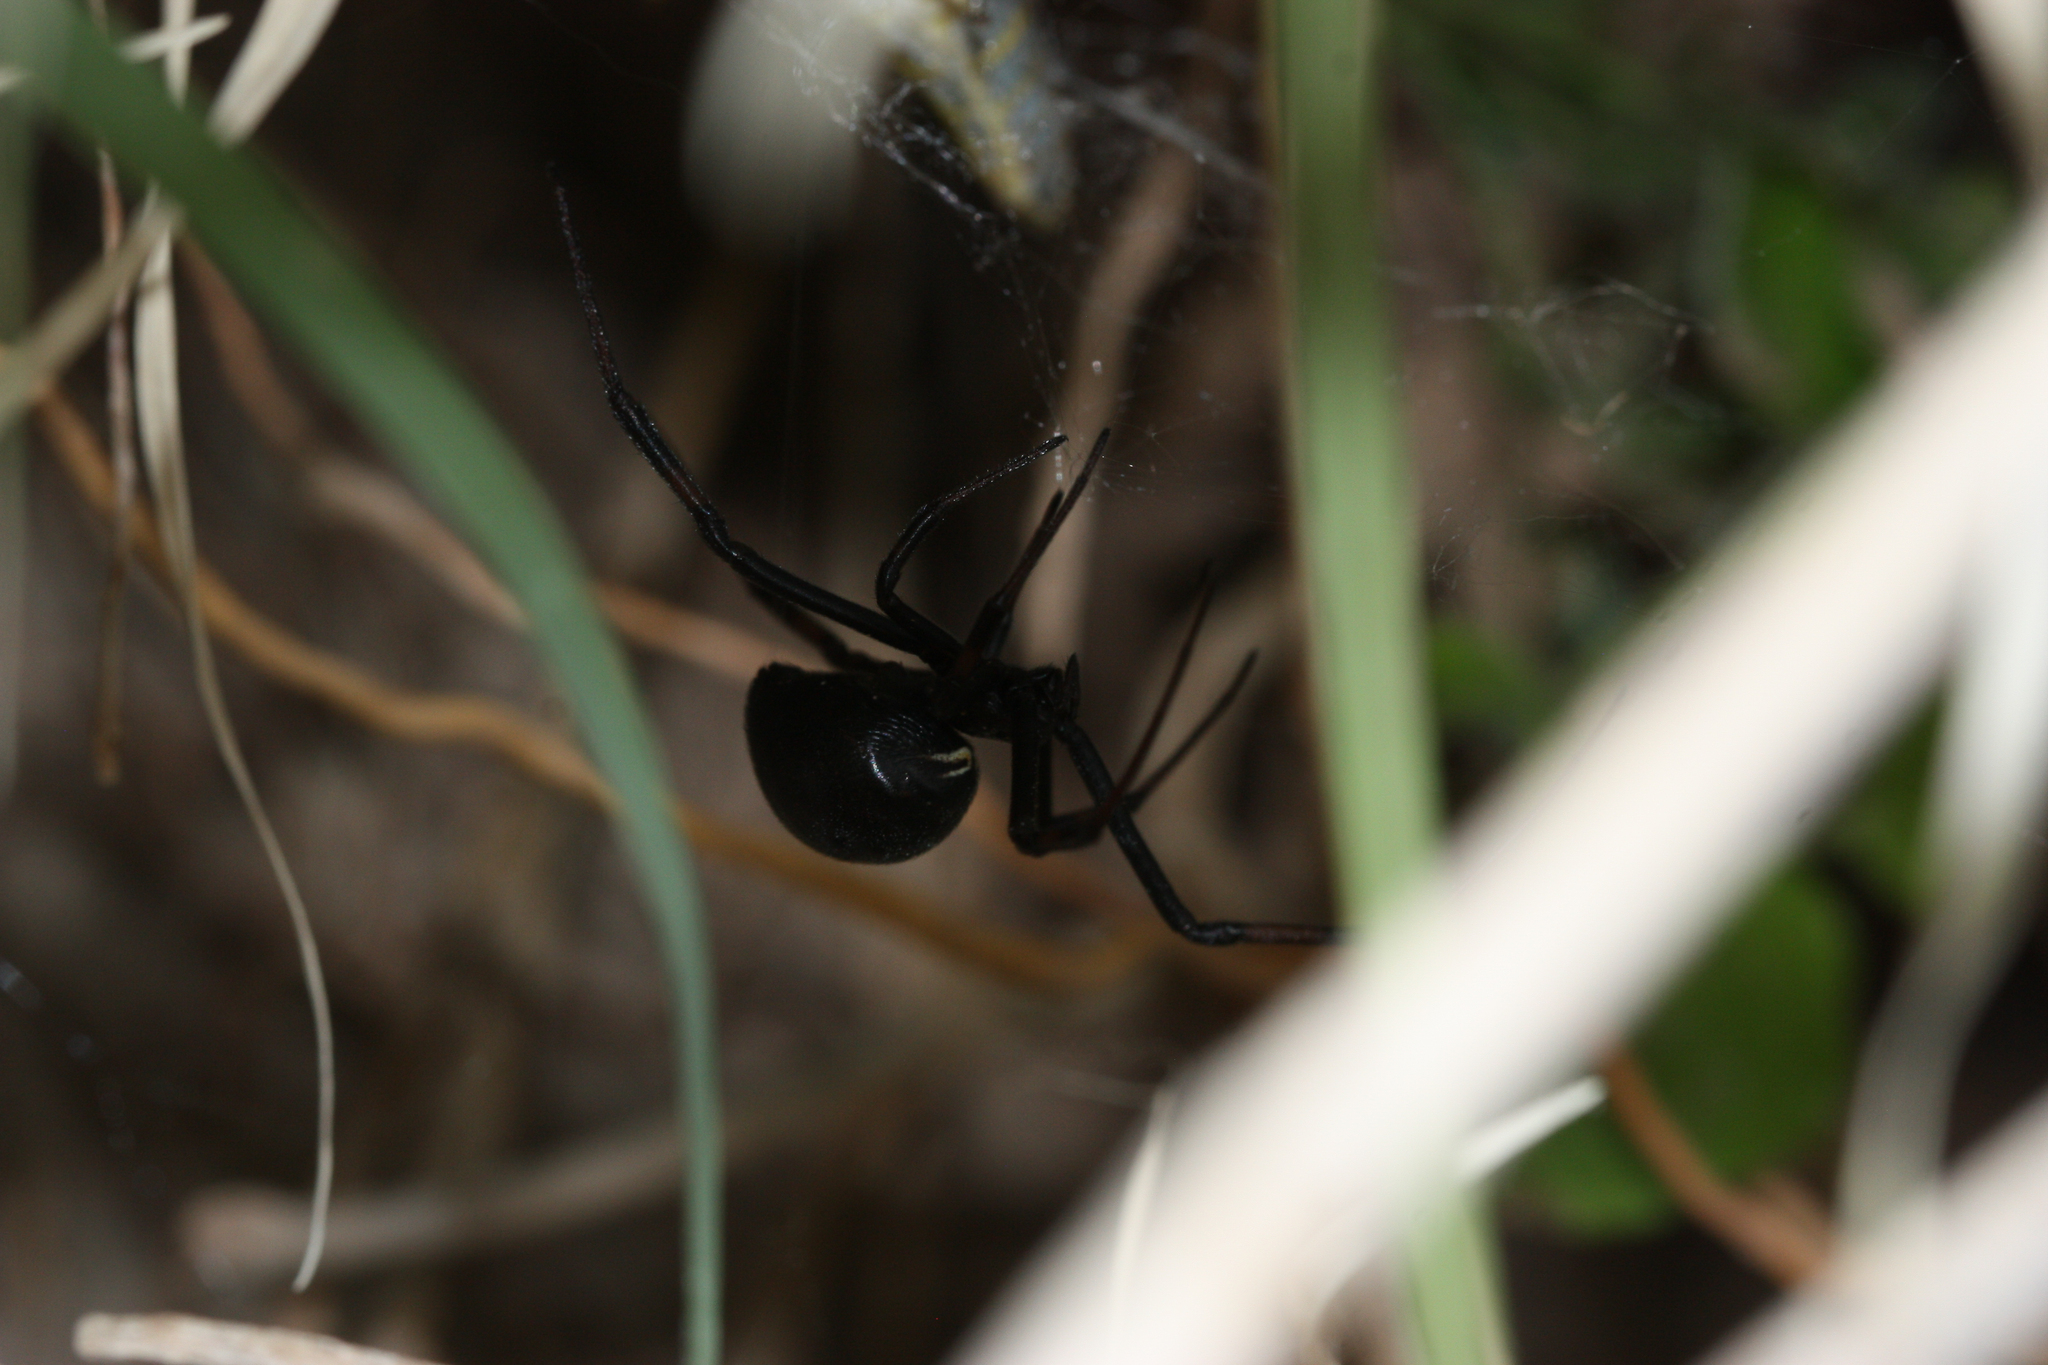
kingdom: Animalia
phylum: Arthropoda
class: Arachnida
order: Araneae
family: Theridiidae
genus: Latrodectus
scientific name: Latrodectus hesperus
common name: Western black widow
